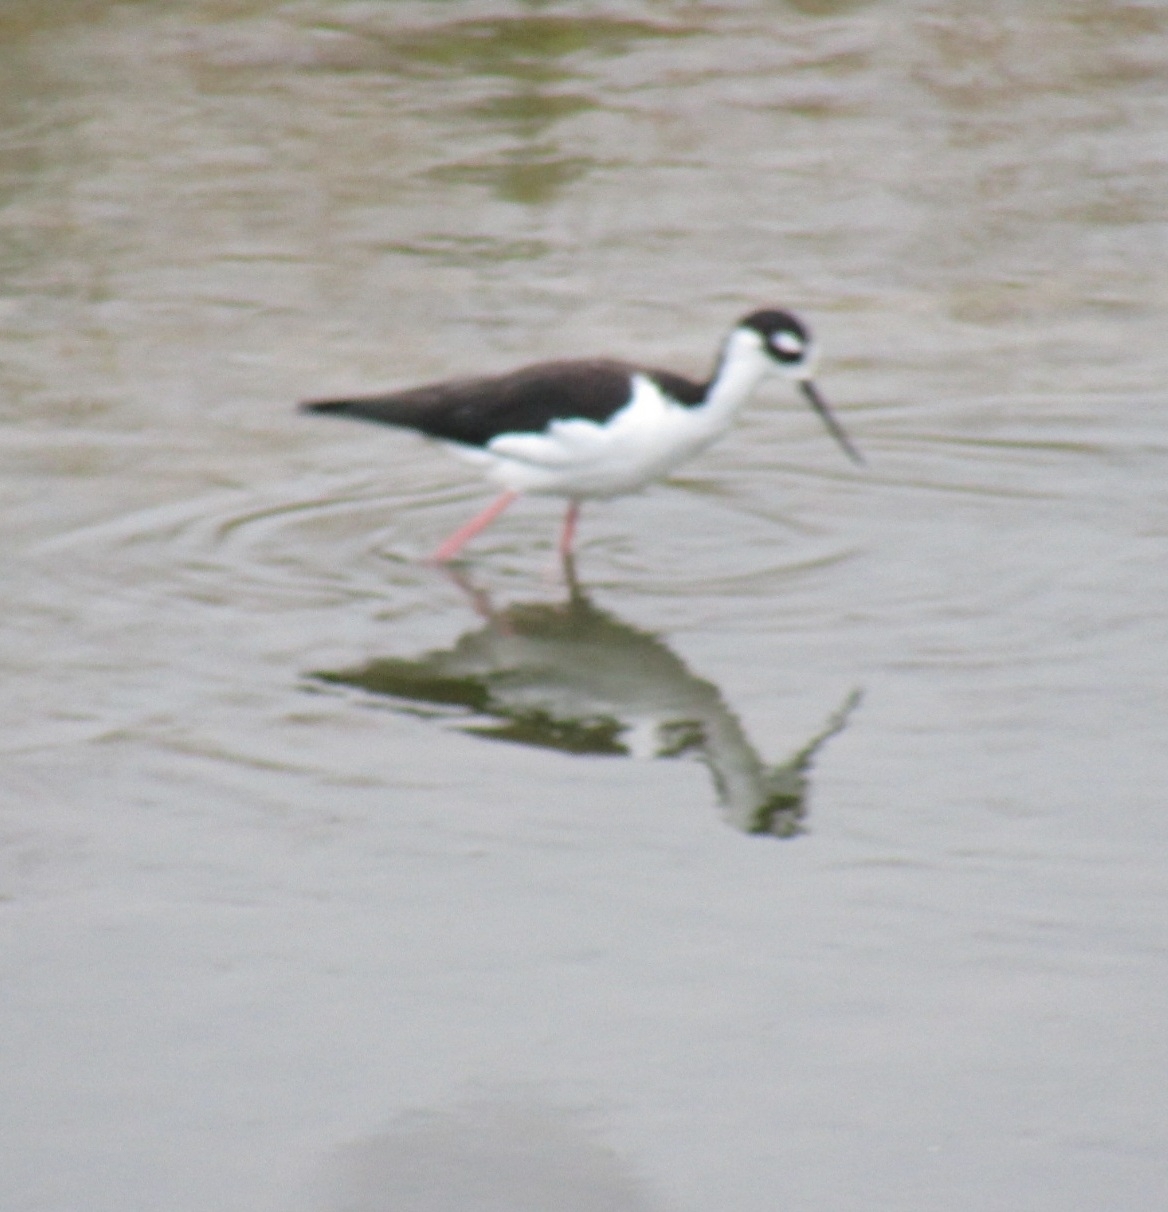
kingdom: Animalia
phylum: Chordata
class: Aves
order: Charadriiformes
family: Recurvirostridae
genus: Himantopus
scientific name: Himantopus mexicanus
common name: Black-necked stilt
